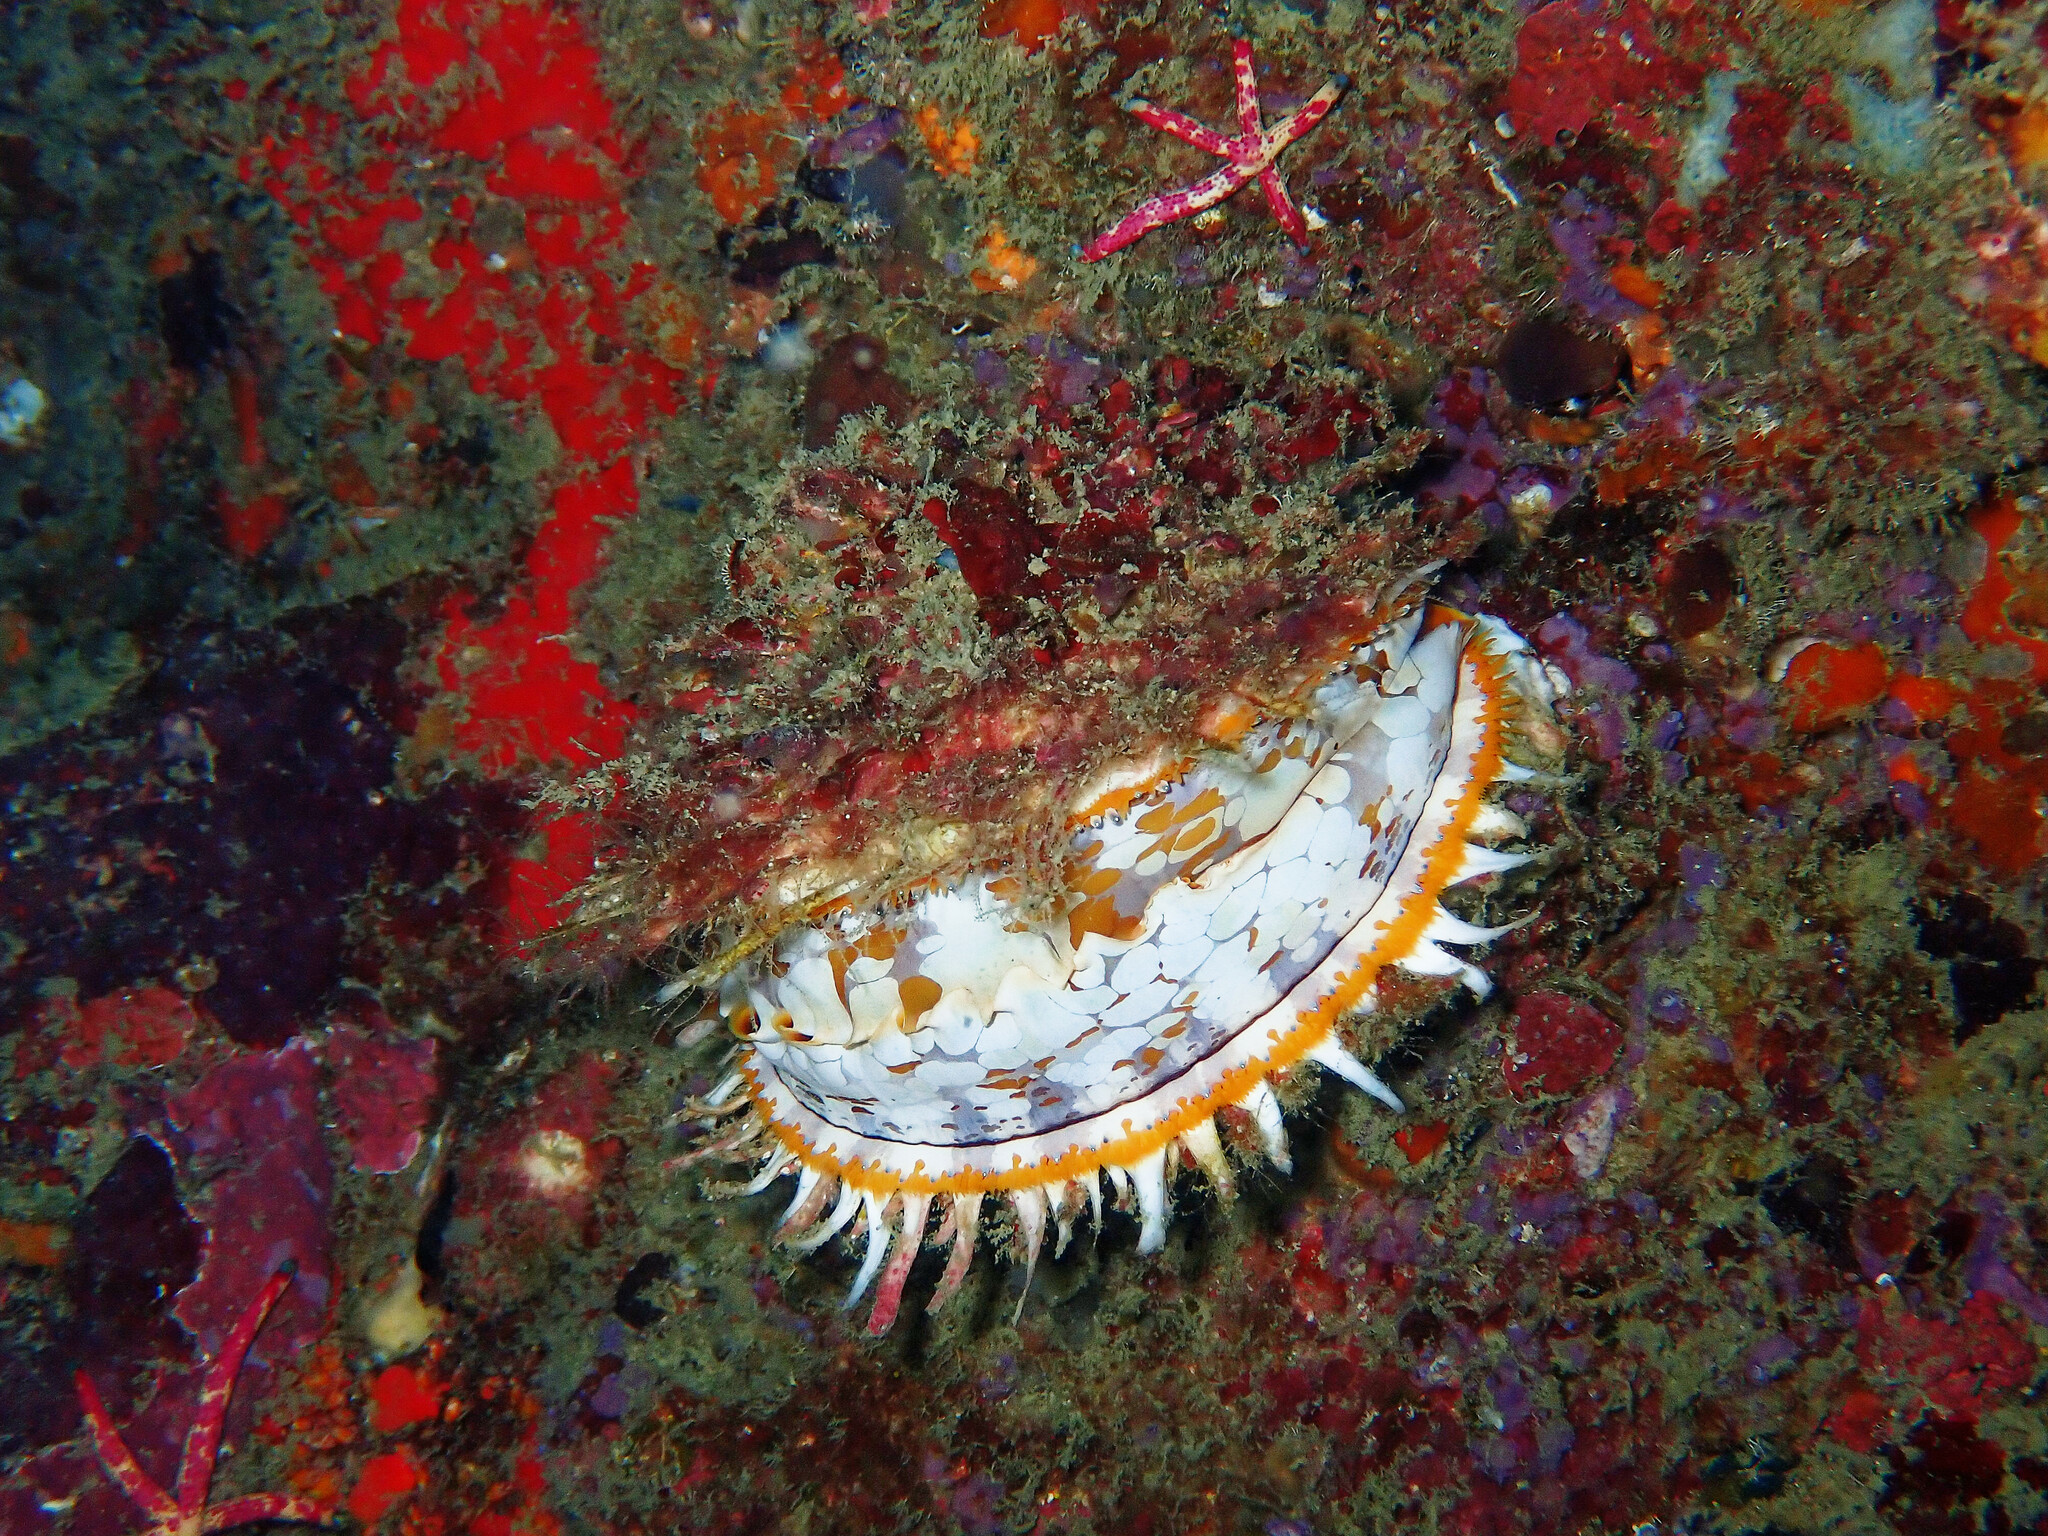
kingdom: Animalia
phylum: Mollusca
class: Bivalvia
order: Pectinida
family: Spondylidae
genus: Spondylus
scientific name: Spondylus varius
